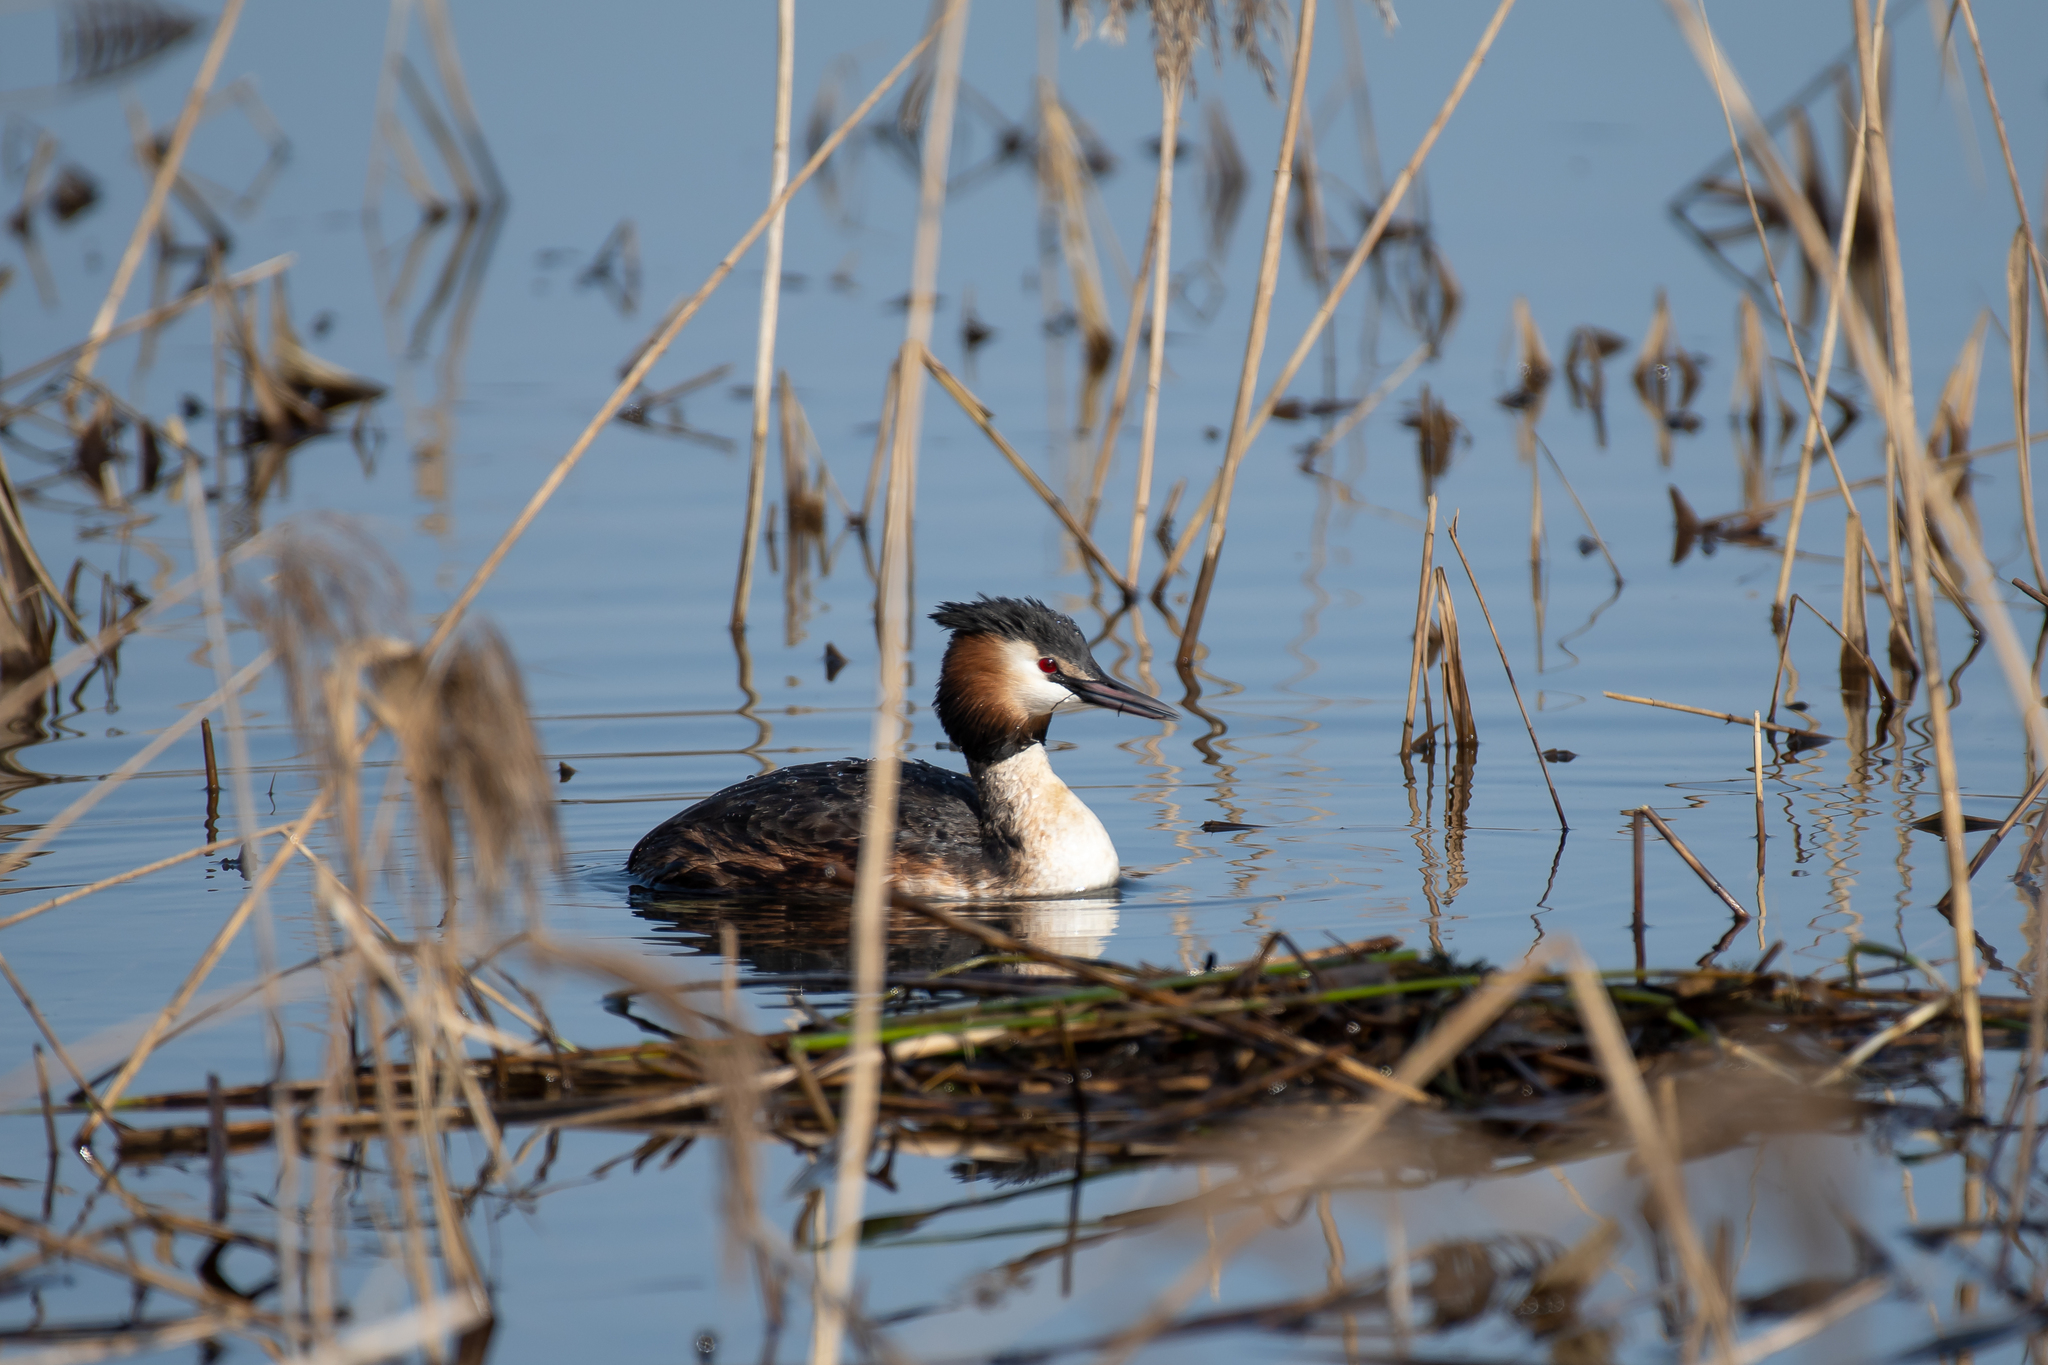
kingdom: Animalia
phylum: Chordata
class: Aves
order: Podicipediformes
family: Podicipedidae
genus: Podiceps
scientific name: Podiceps cristatus
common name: Great crested grebe
